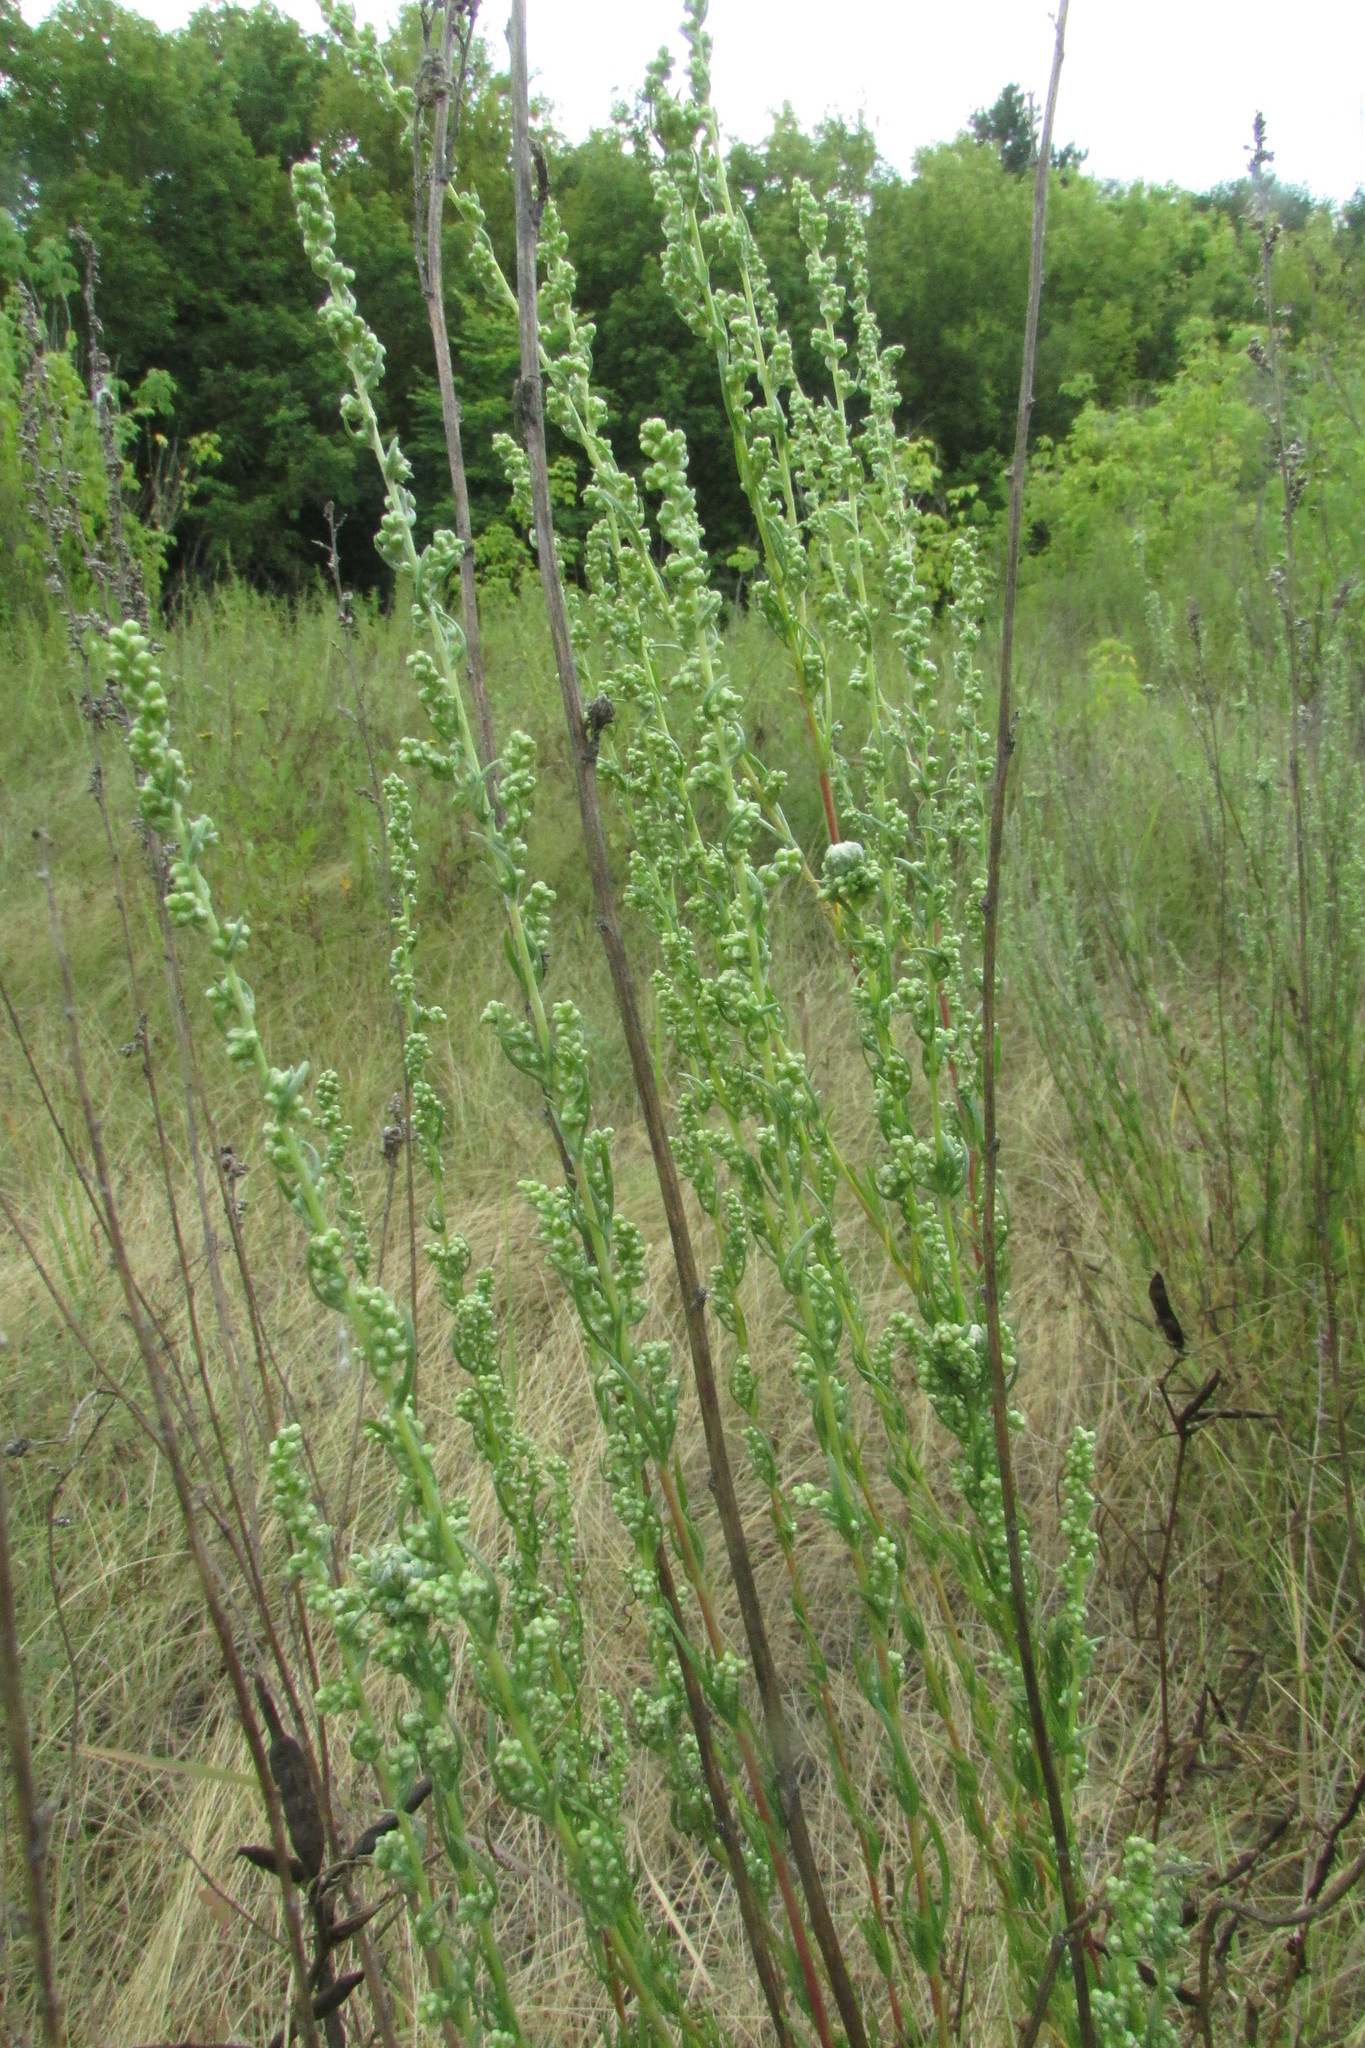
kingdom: Plantae
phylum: Tracheophyta
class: Magnoliopsida
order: Asterales
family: Asteraceae
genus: Artemisia
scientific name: Artemisia campestris
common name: Field wormwood
